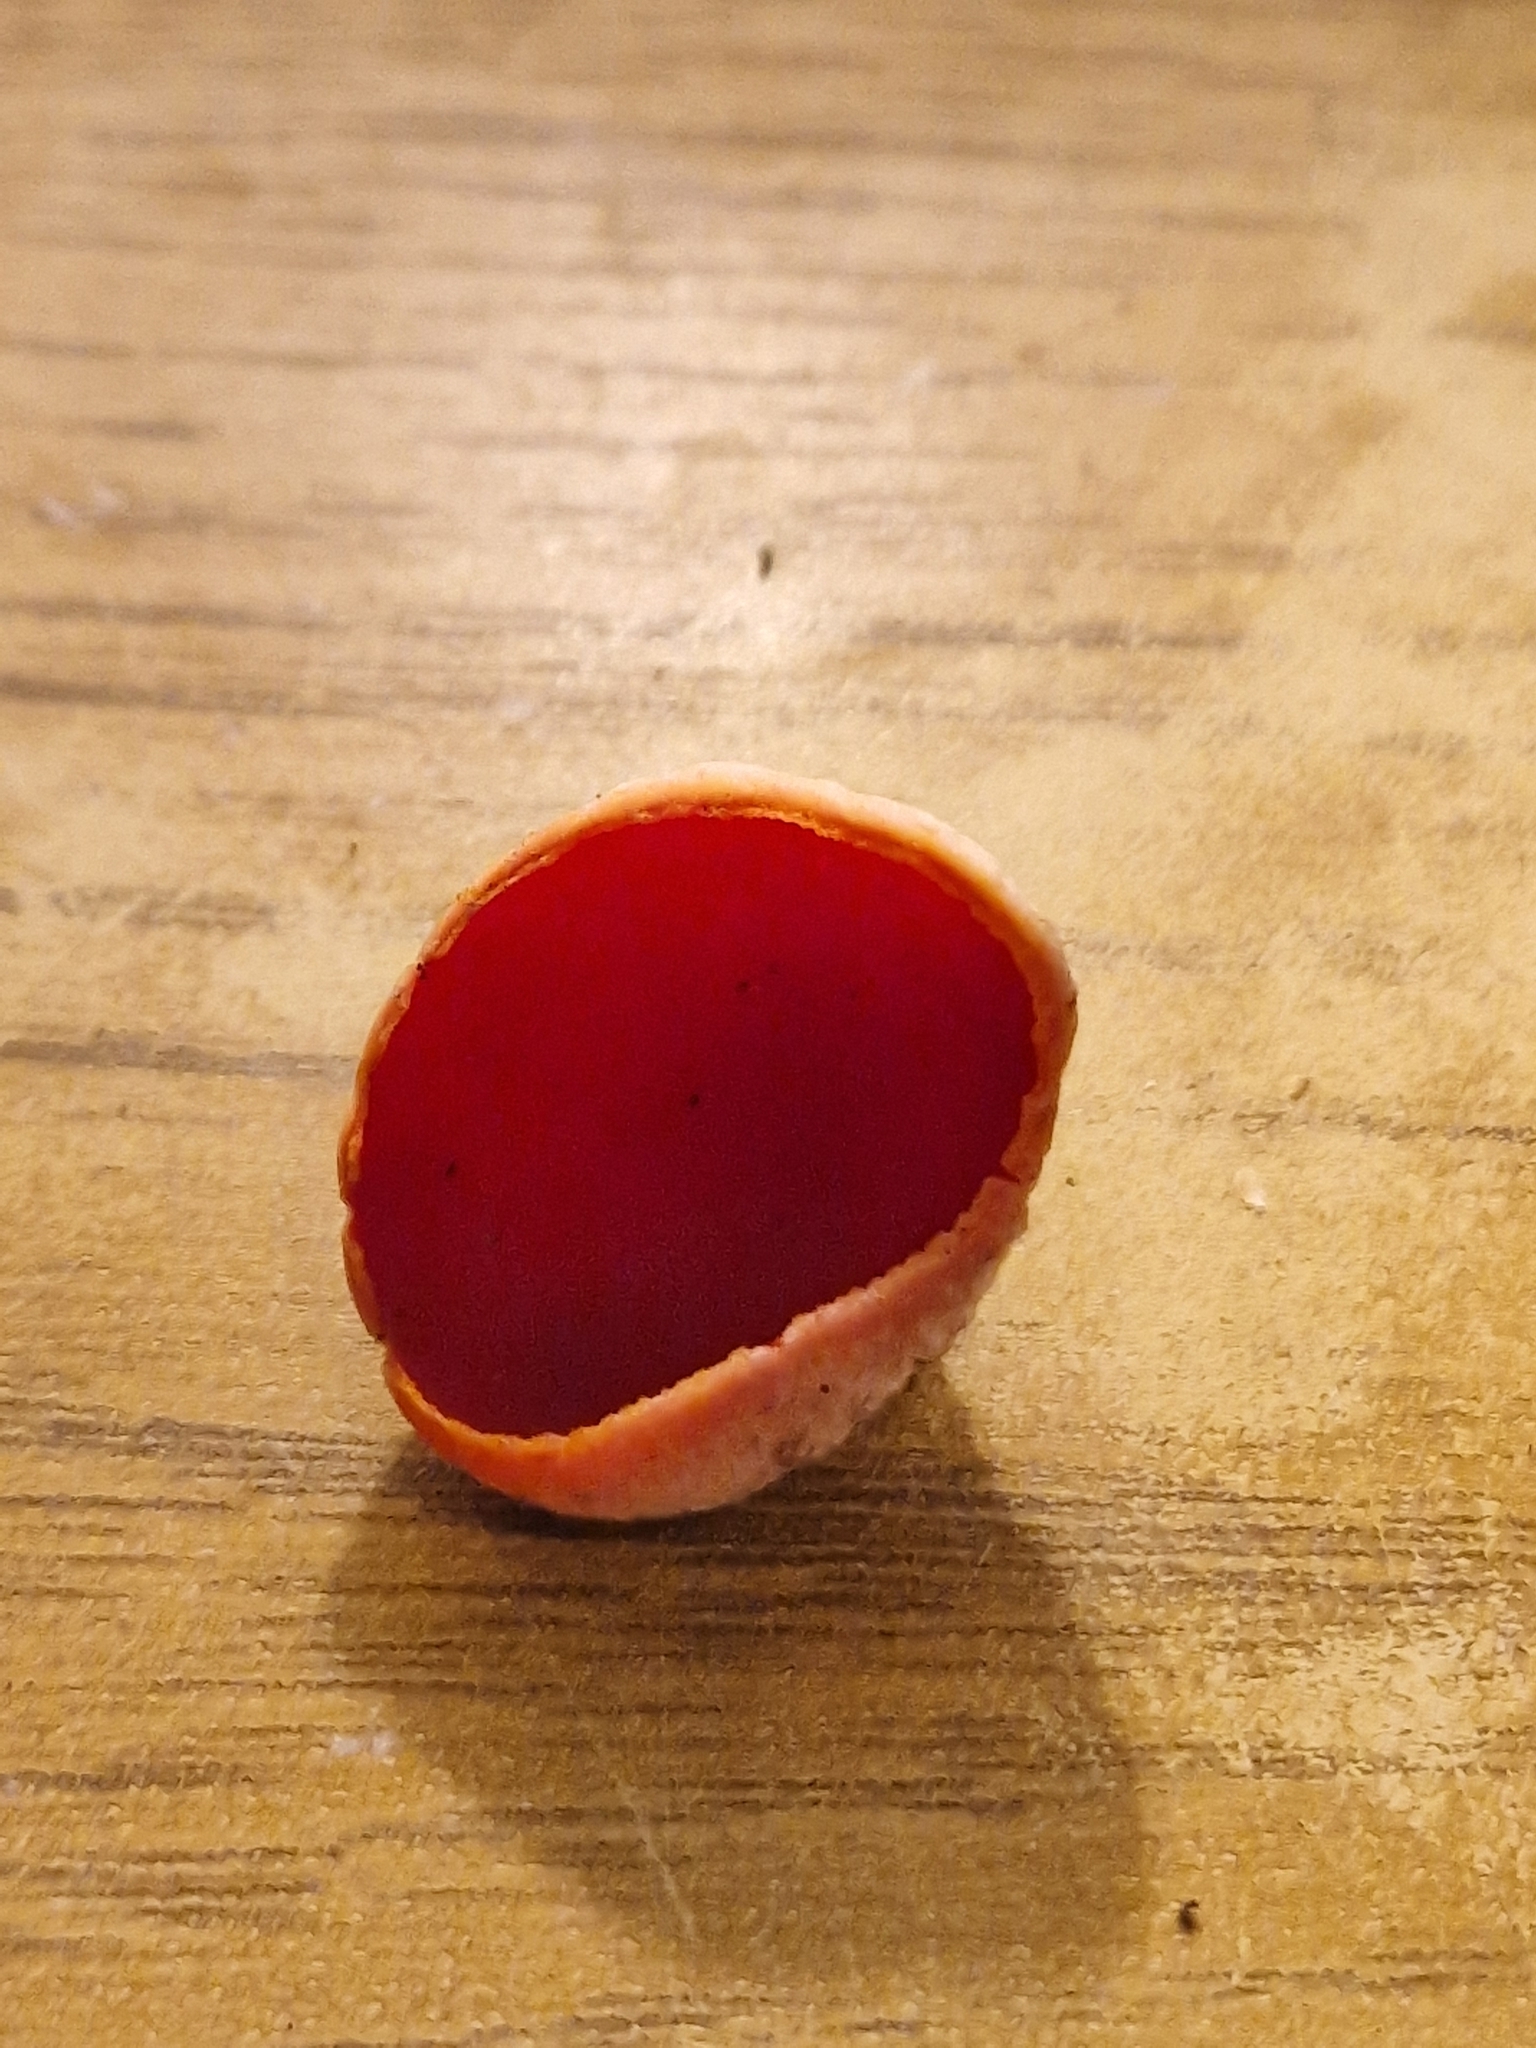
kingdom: Fungi
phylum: Ascomycota
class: Pezizomycetes
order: Pezizales
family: Sarcoscyphaceae
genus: Sarcoscypha
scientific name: Sarcoscypha austriaca
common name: Scarlet elfcup
